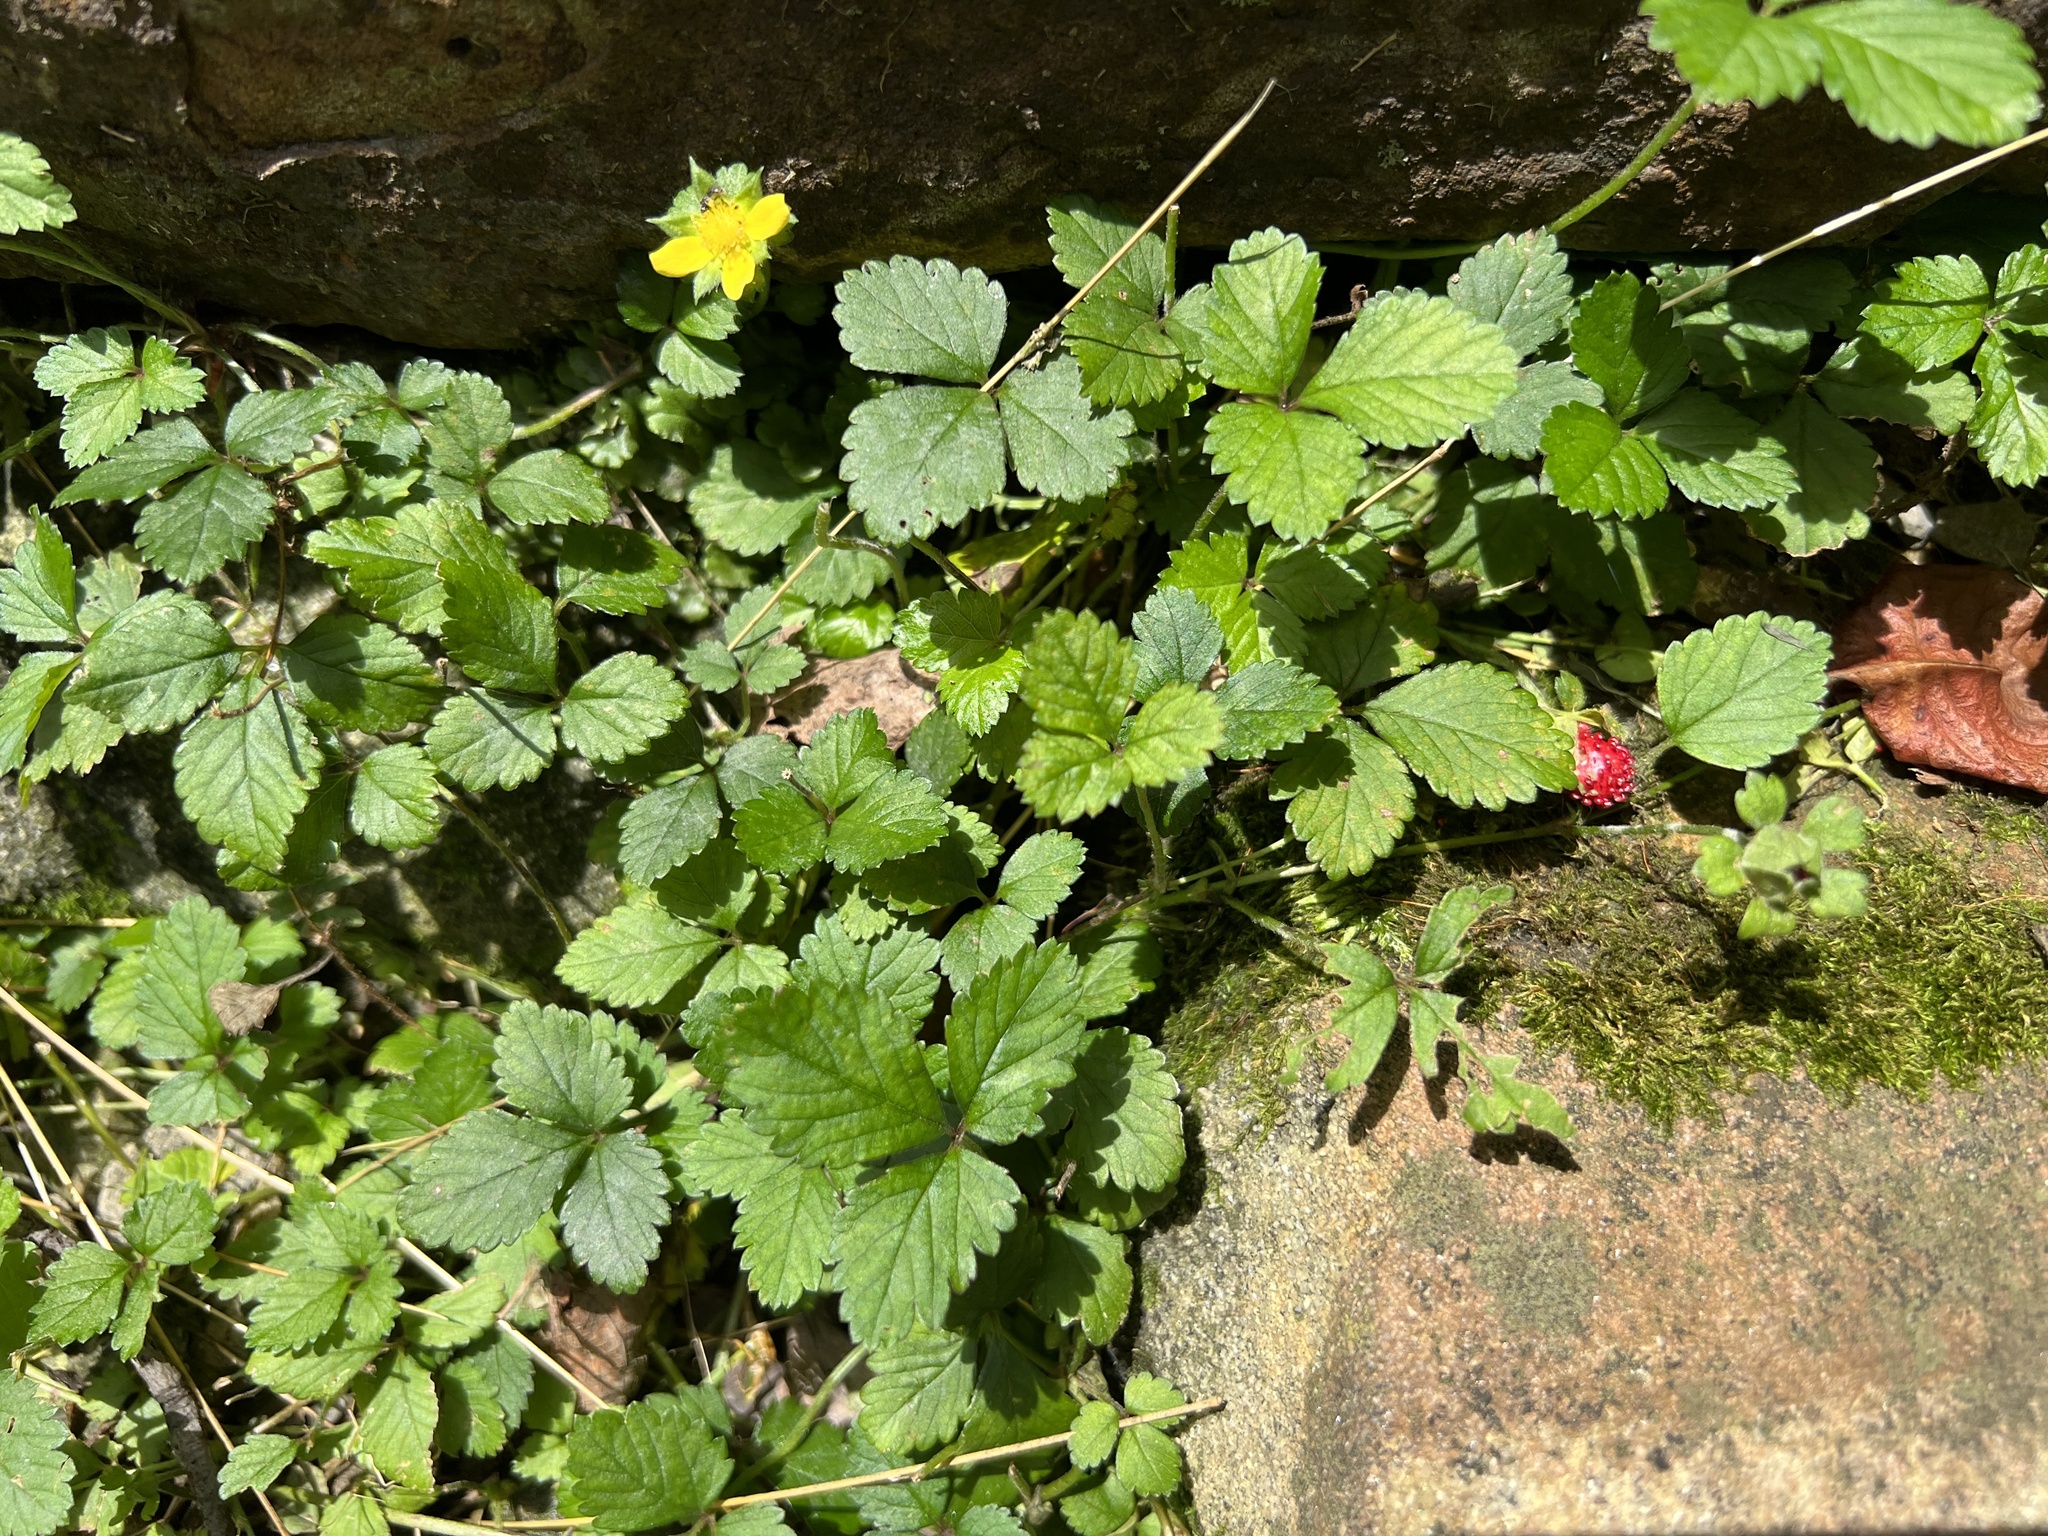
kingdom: Plantae
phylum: Tracheophyta
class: Magnoliopsida
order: Rosales
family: Rosaceae
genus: Potentilla
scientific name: Potentilla indica
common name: Yellow-flowered strawberry
